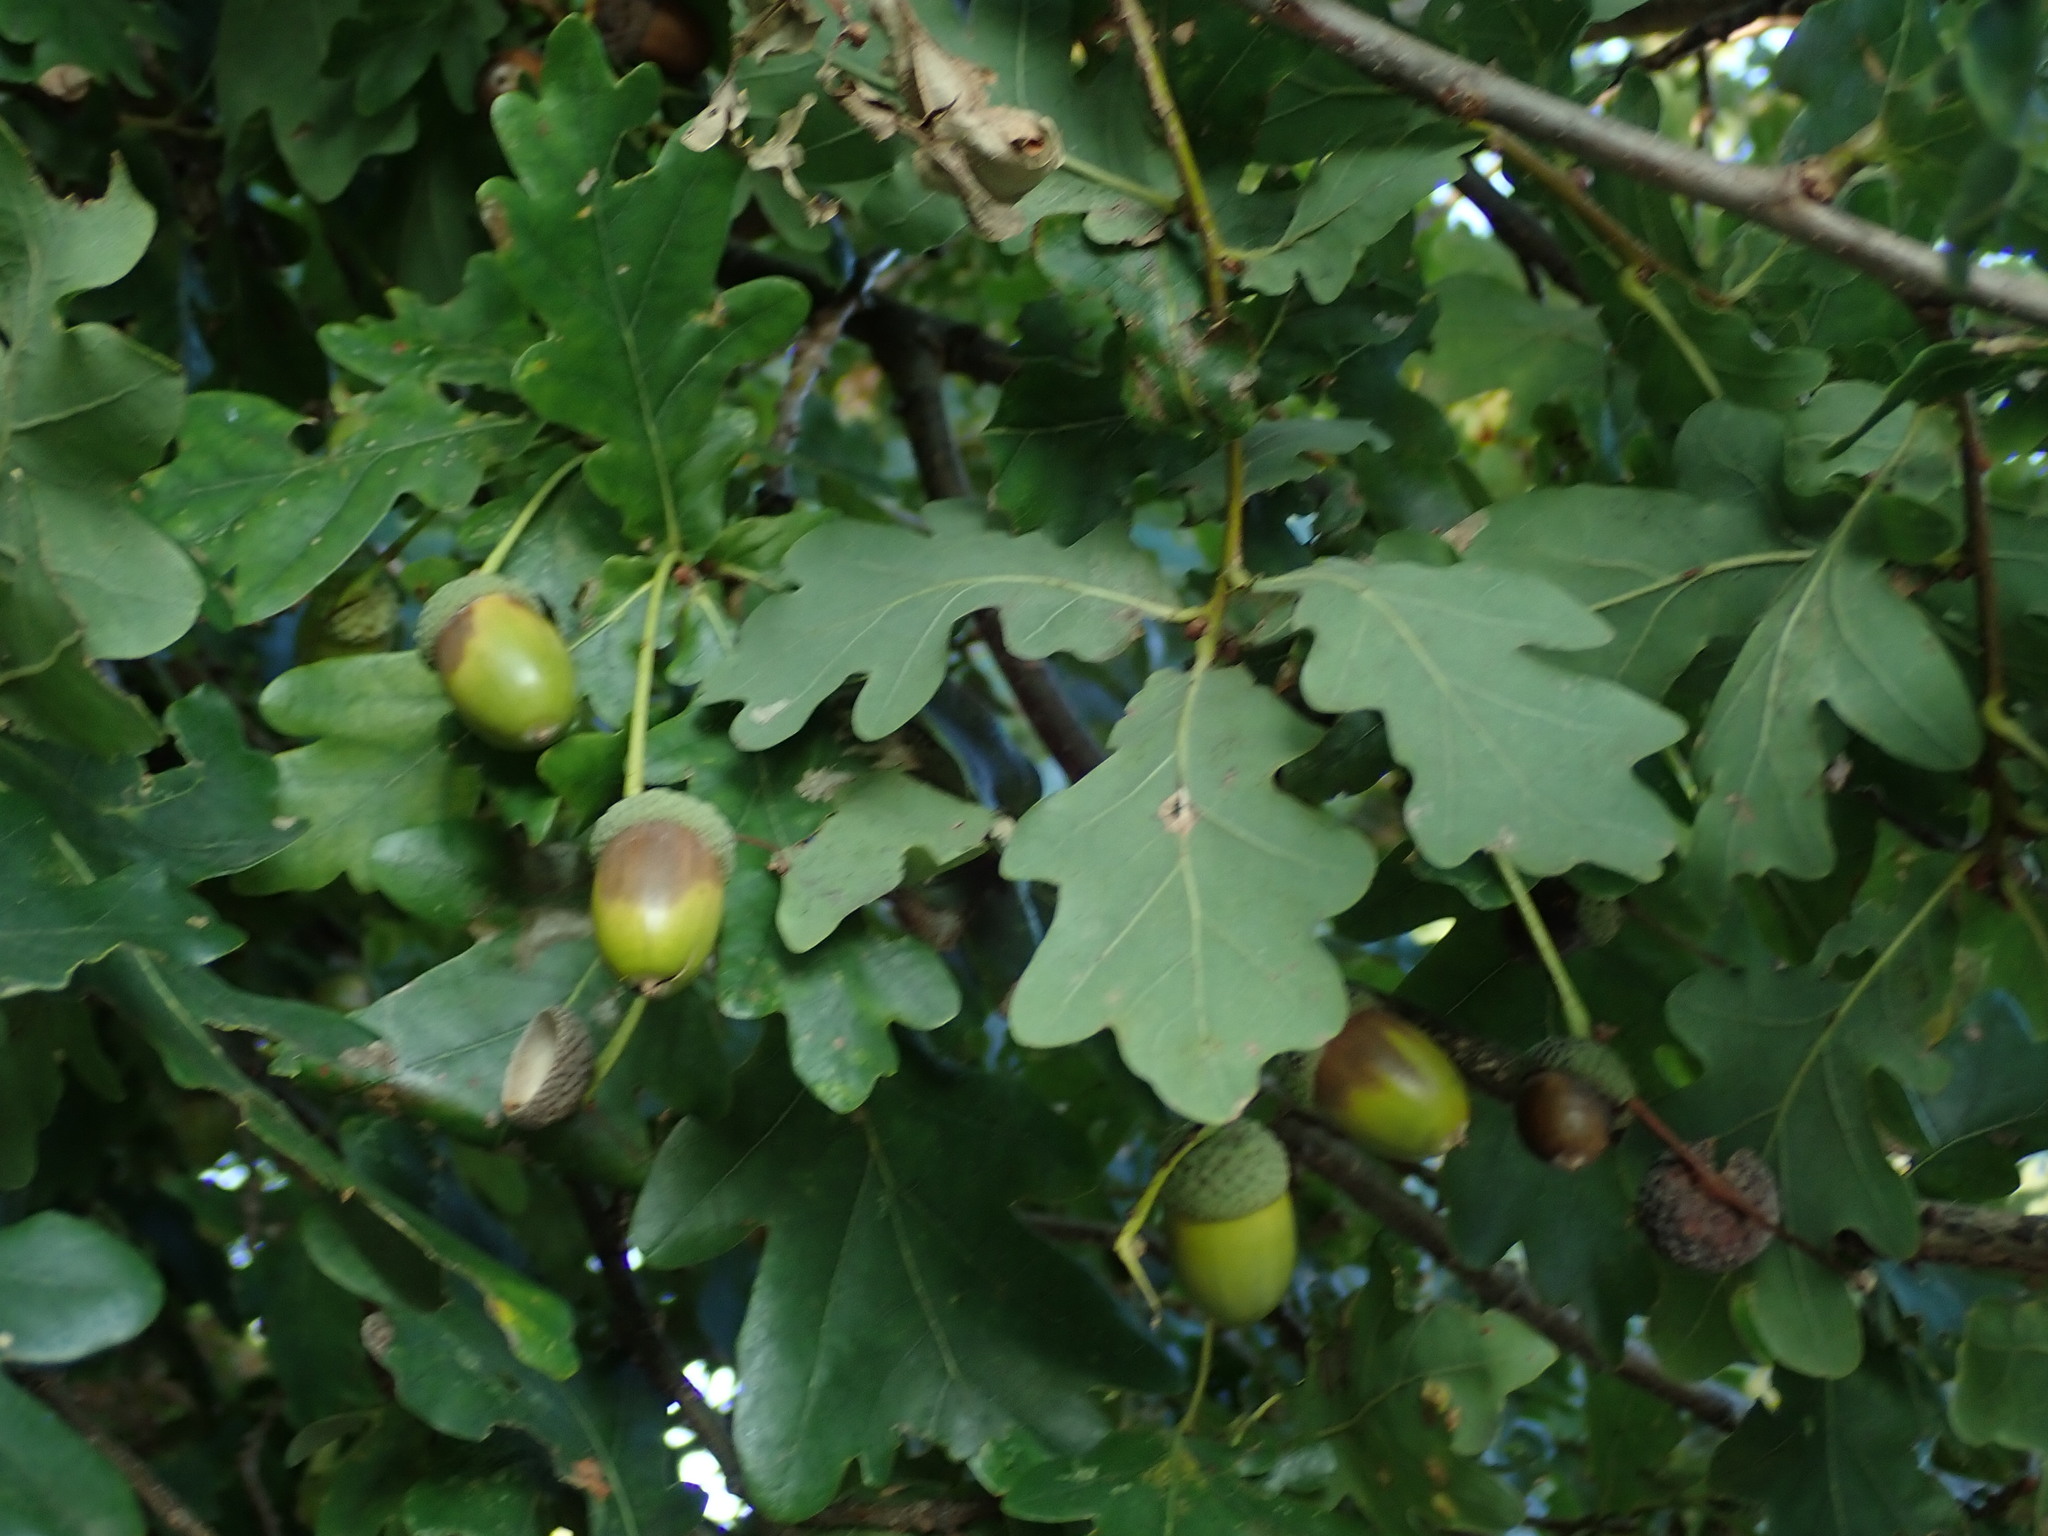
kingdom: Plantae
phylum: Tracheophyta
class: Magnoliopsida
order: Fagales
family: Fagaceae
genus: Quercus
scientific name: Quercus robur
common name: Pedunculate oak
